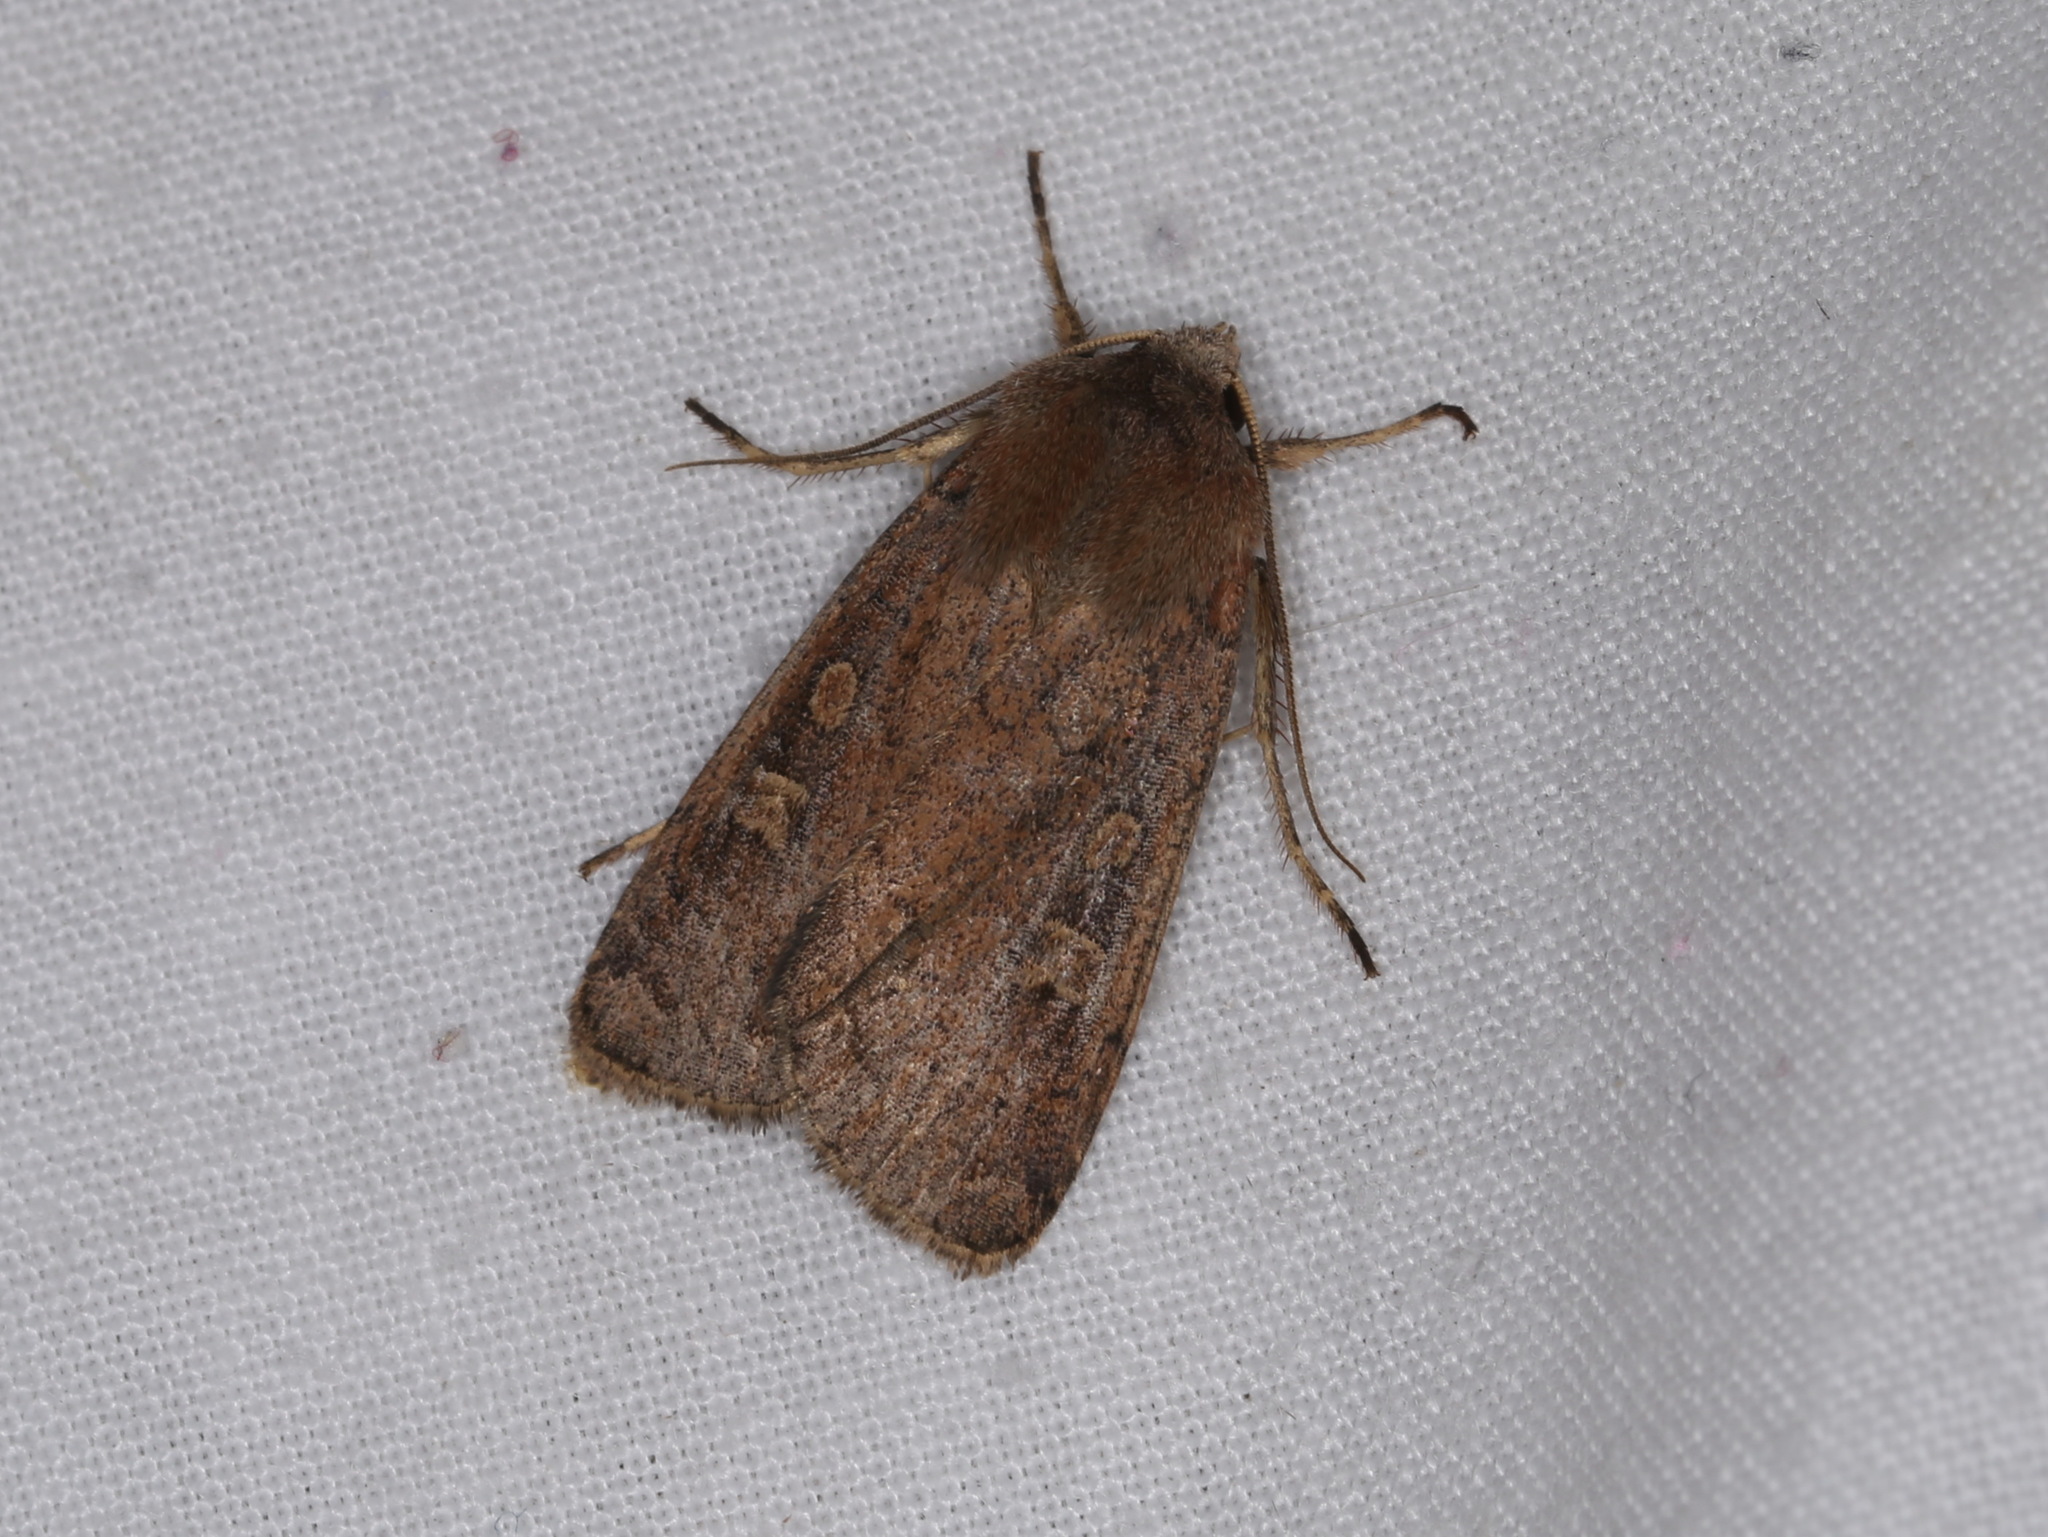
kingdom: Animalia
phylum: Arthropoda
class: Insecta
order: Lepidoptera
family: Noctuidae
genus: Xestia
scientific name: Xestia xanthographa
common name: Square-spot rustic
